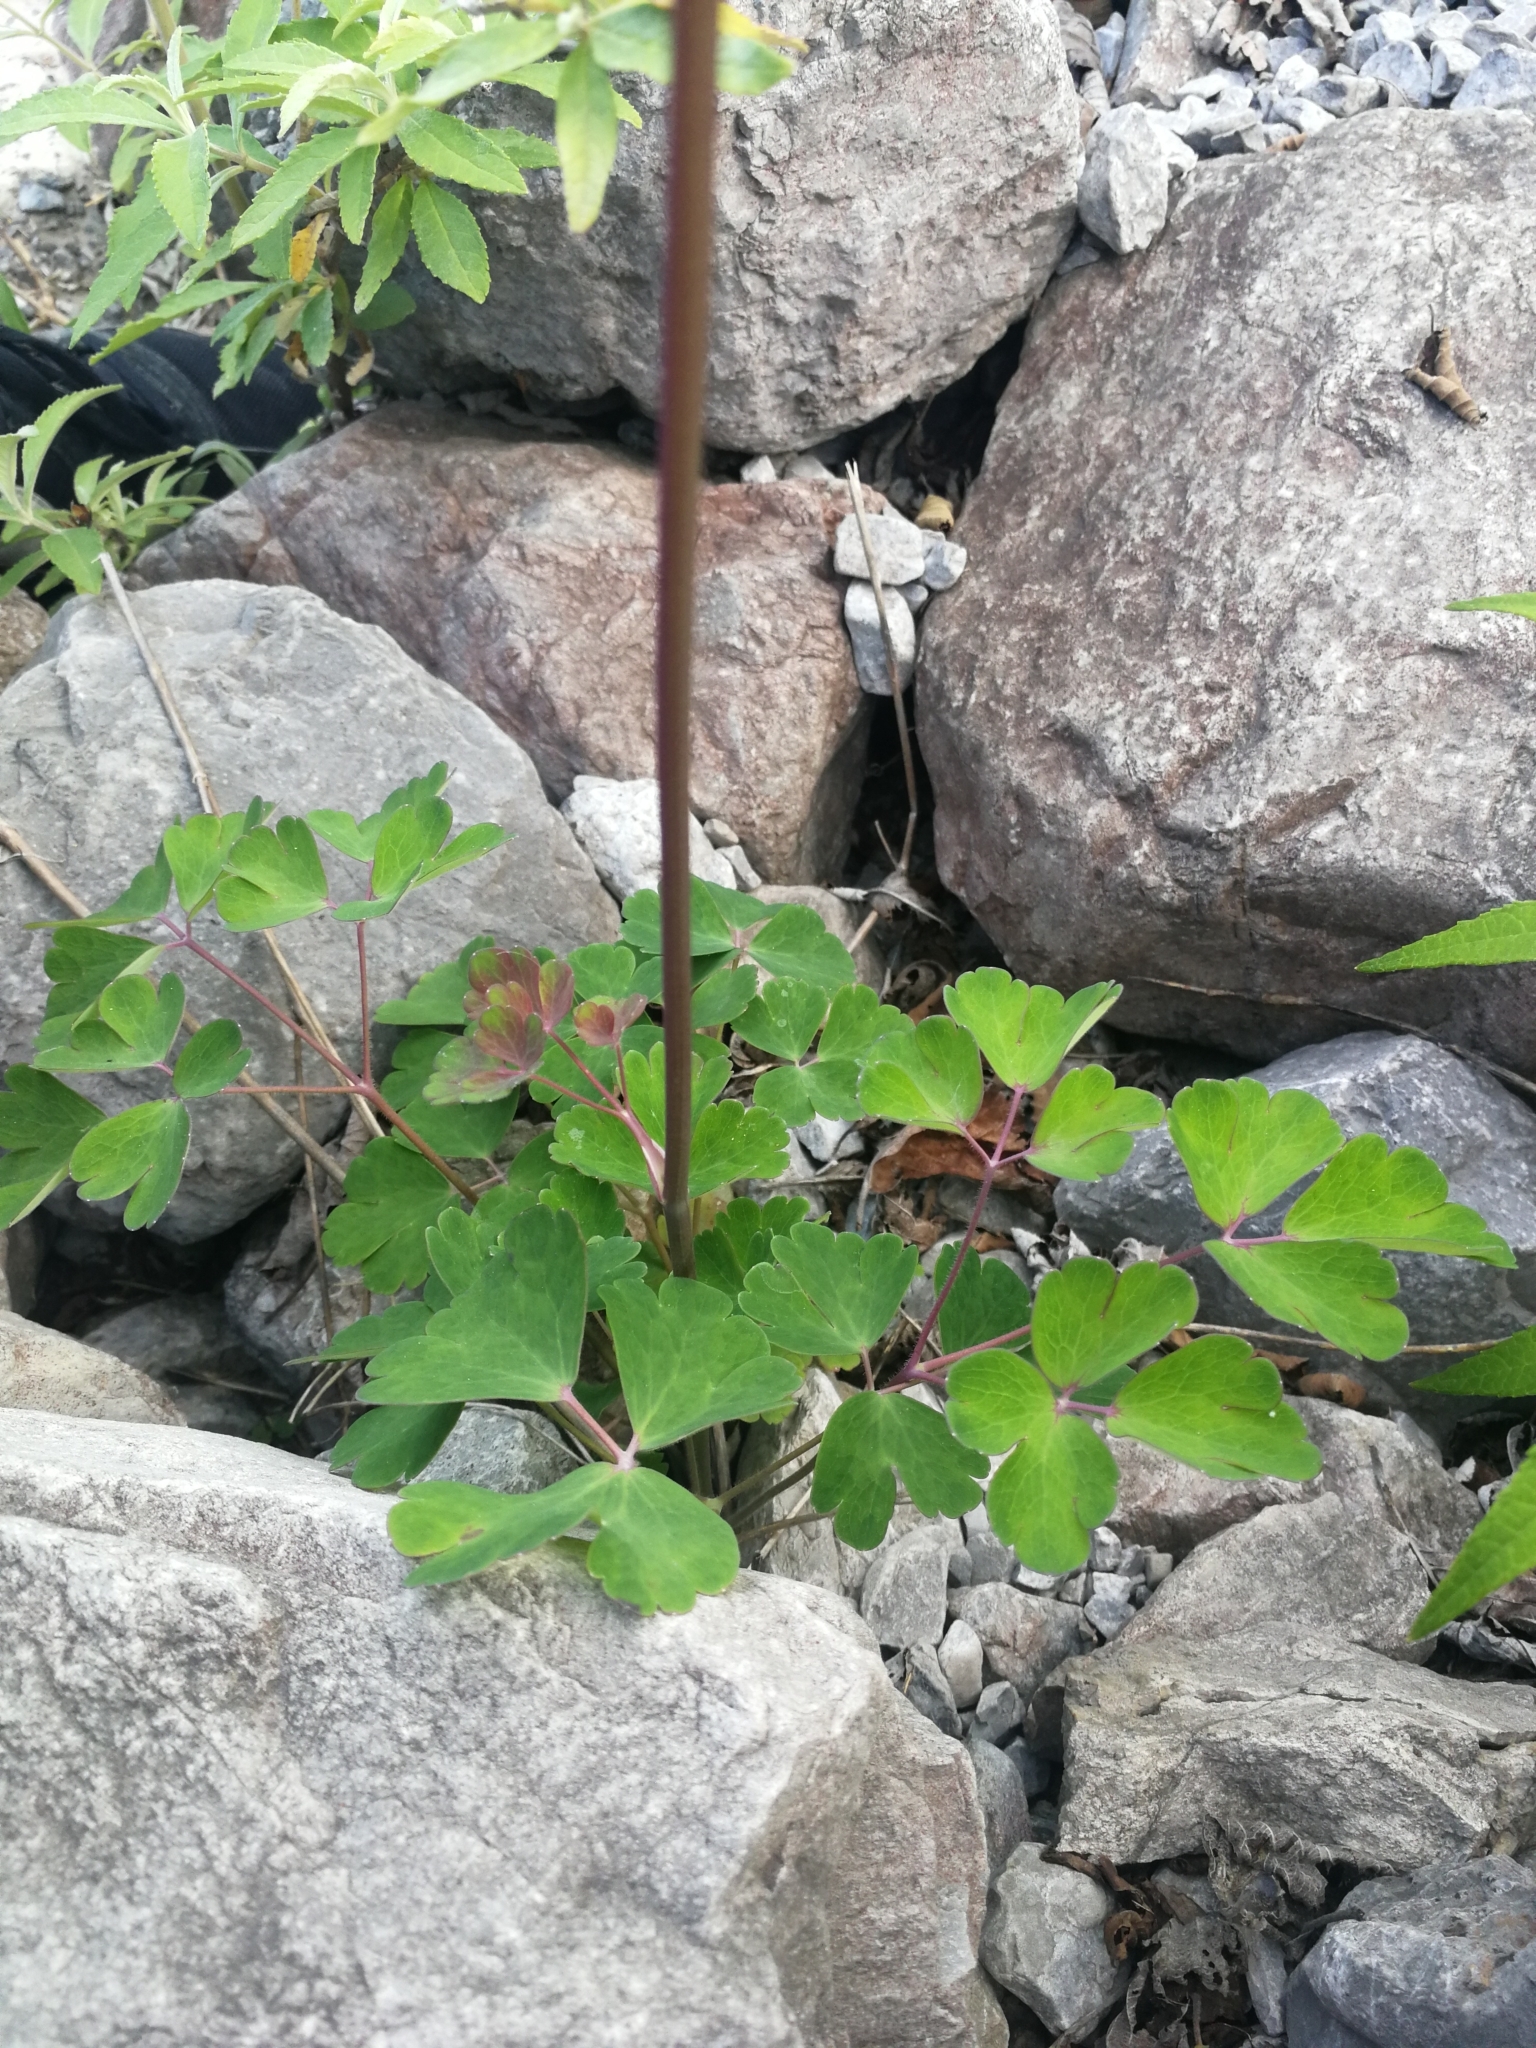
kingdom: Plantae
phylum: Tracheophyta
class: Magnoliopsida
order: Ranunculales
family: Ranunculaceae
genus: Aquilegia
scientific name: Aquilegia atrata
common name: Dark columbine
